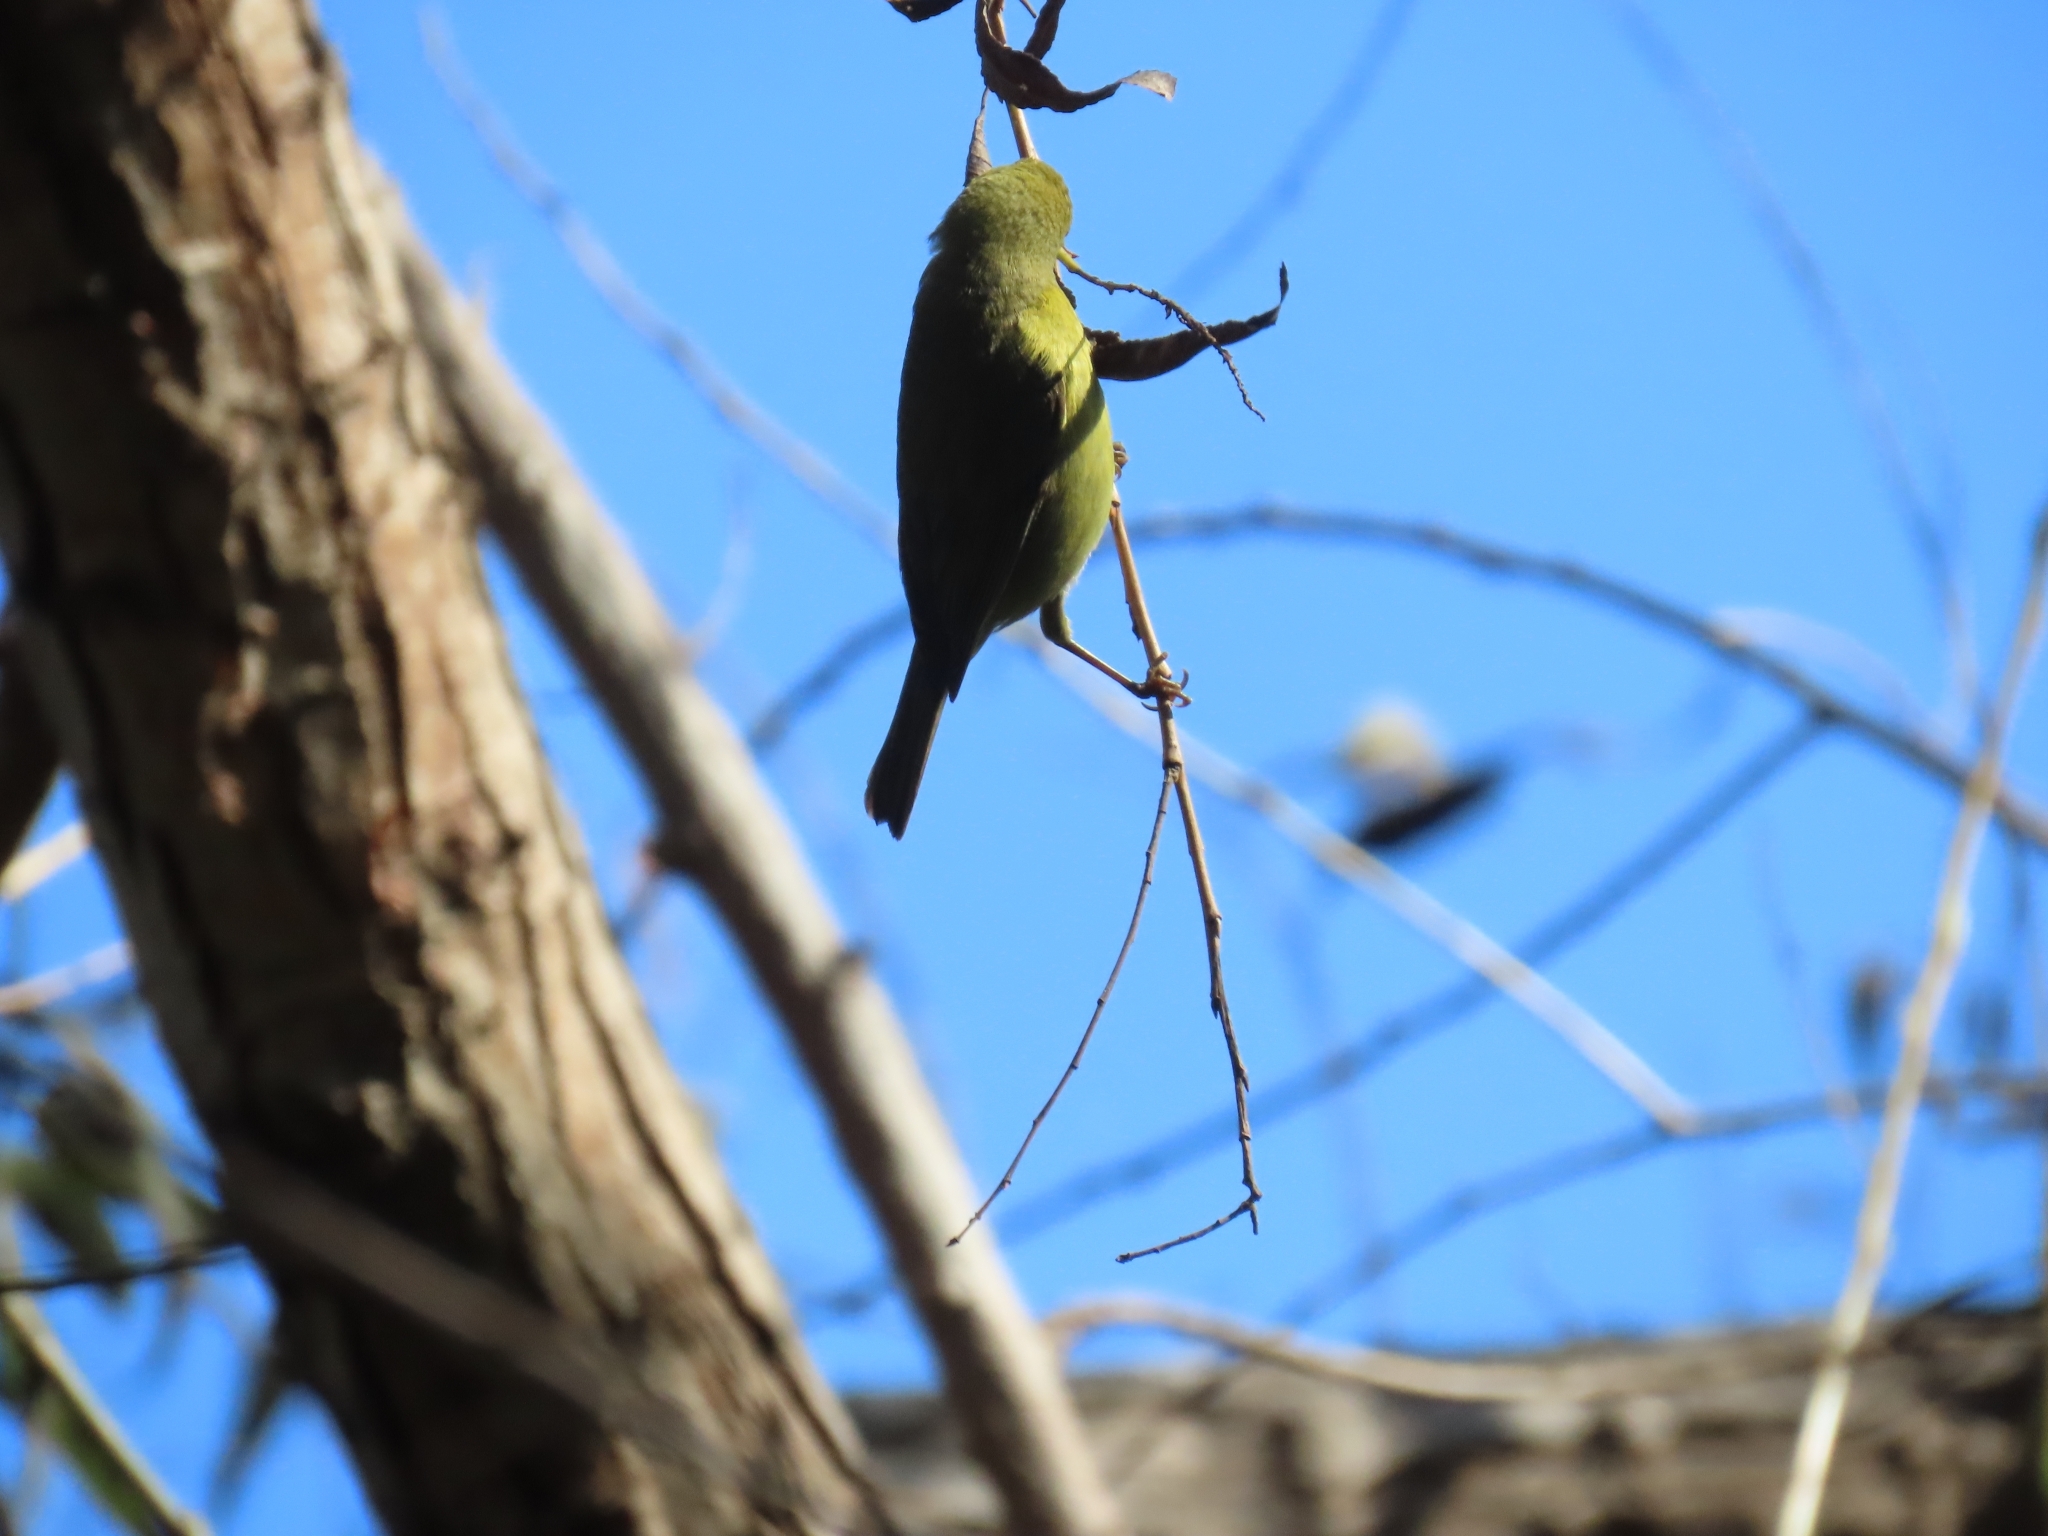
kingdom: Animalia
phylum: Chordata
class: Aves
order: Passeriformes
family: Parulidae
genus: Leiothlypis
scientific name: Leiothlypis celata
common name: Orange-crowned warbler
